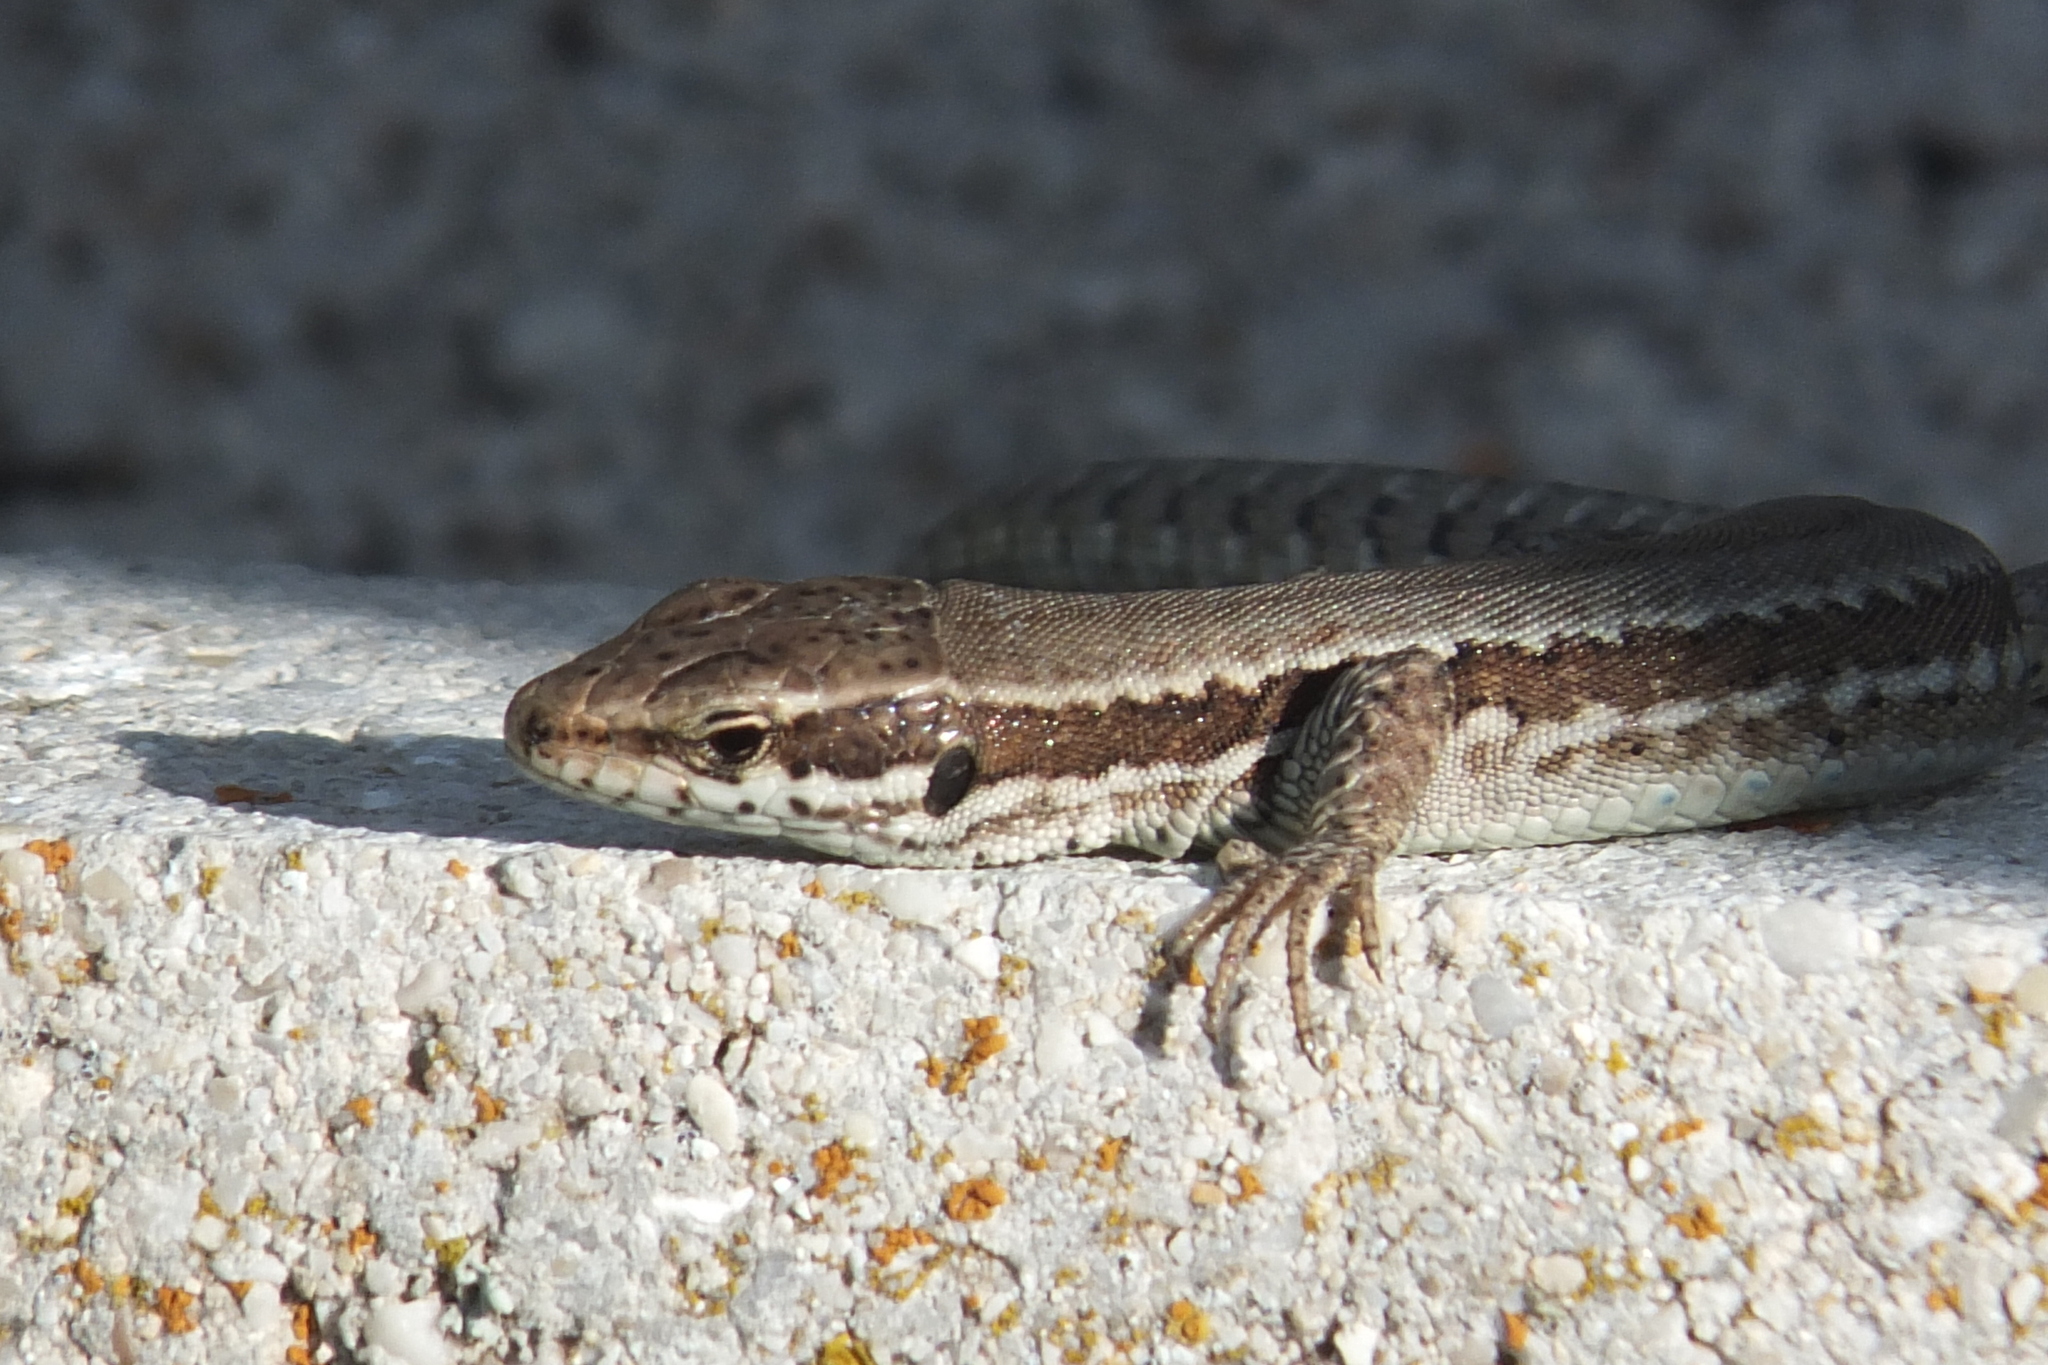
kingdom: Animalia
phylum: Chordata
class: Squamata
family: Lacertidae
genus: Podarcis
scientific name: Podarcis muralis
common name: Common wall lizard
